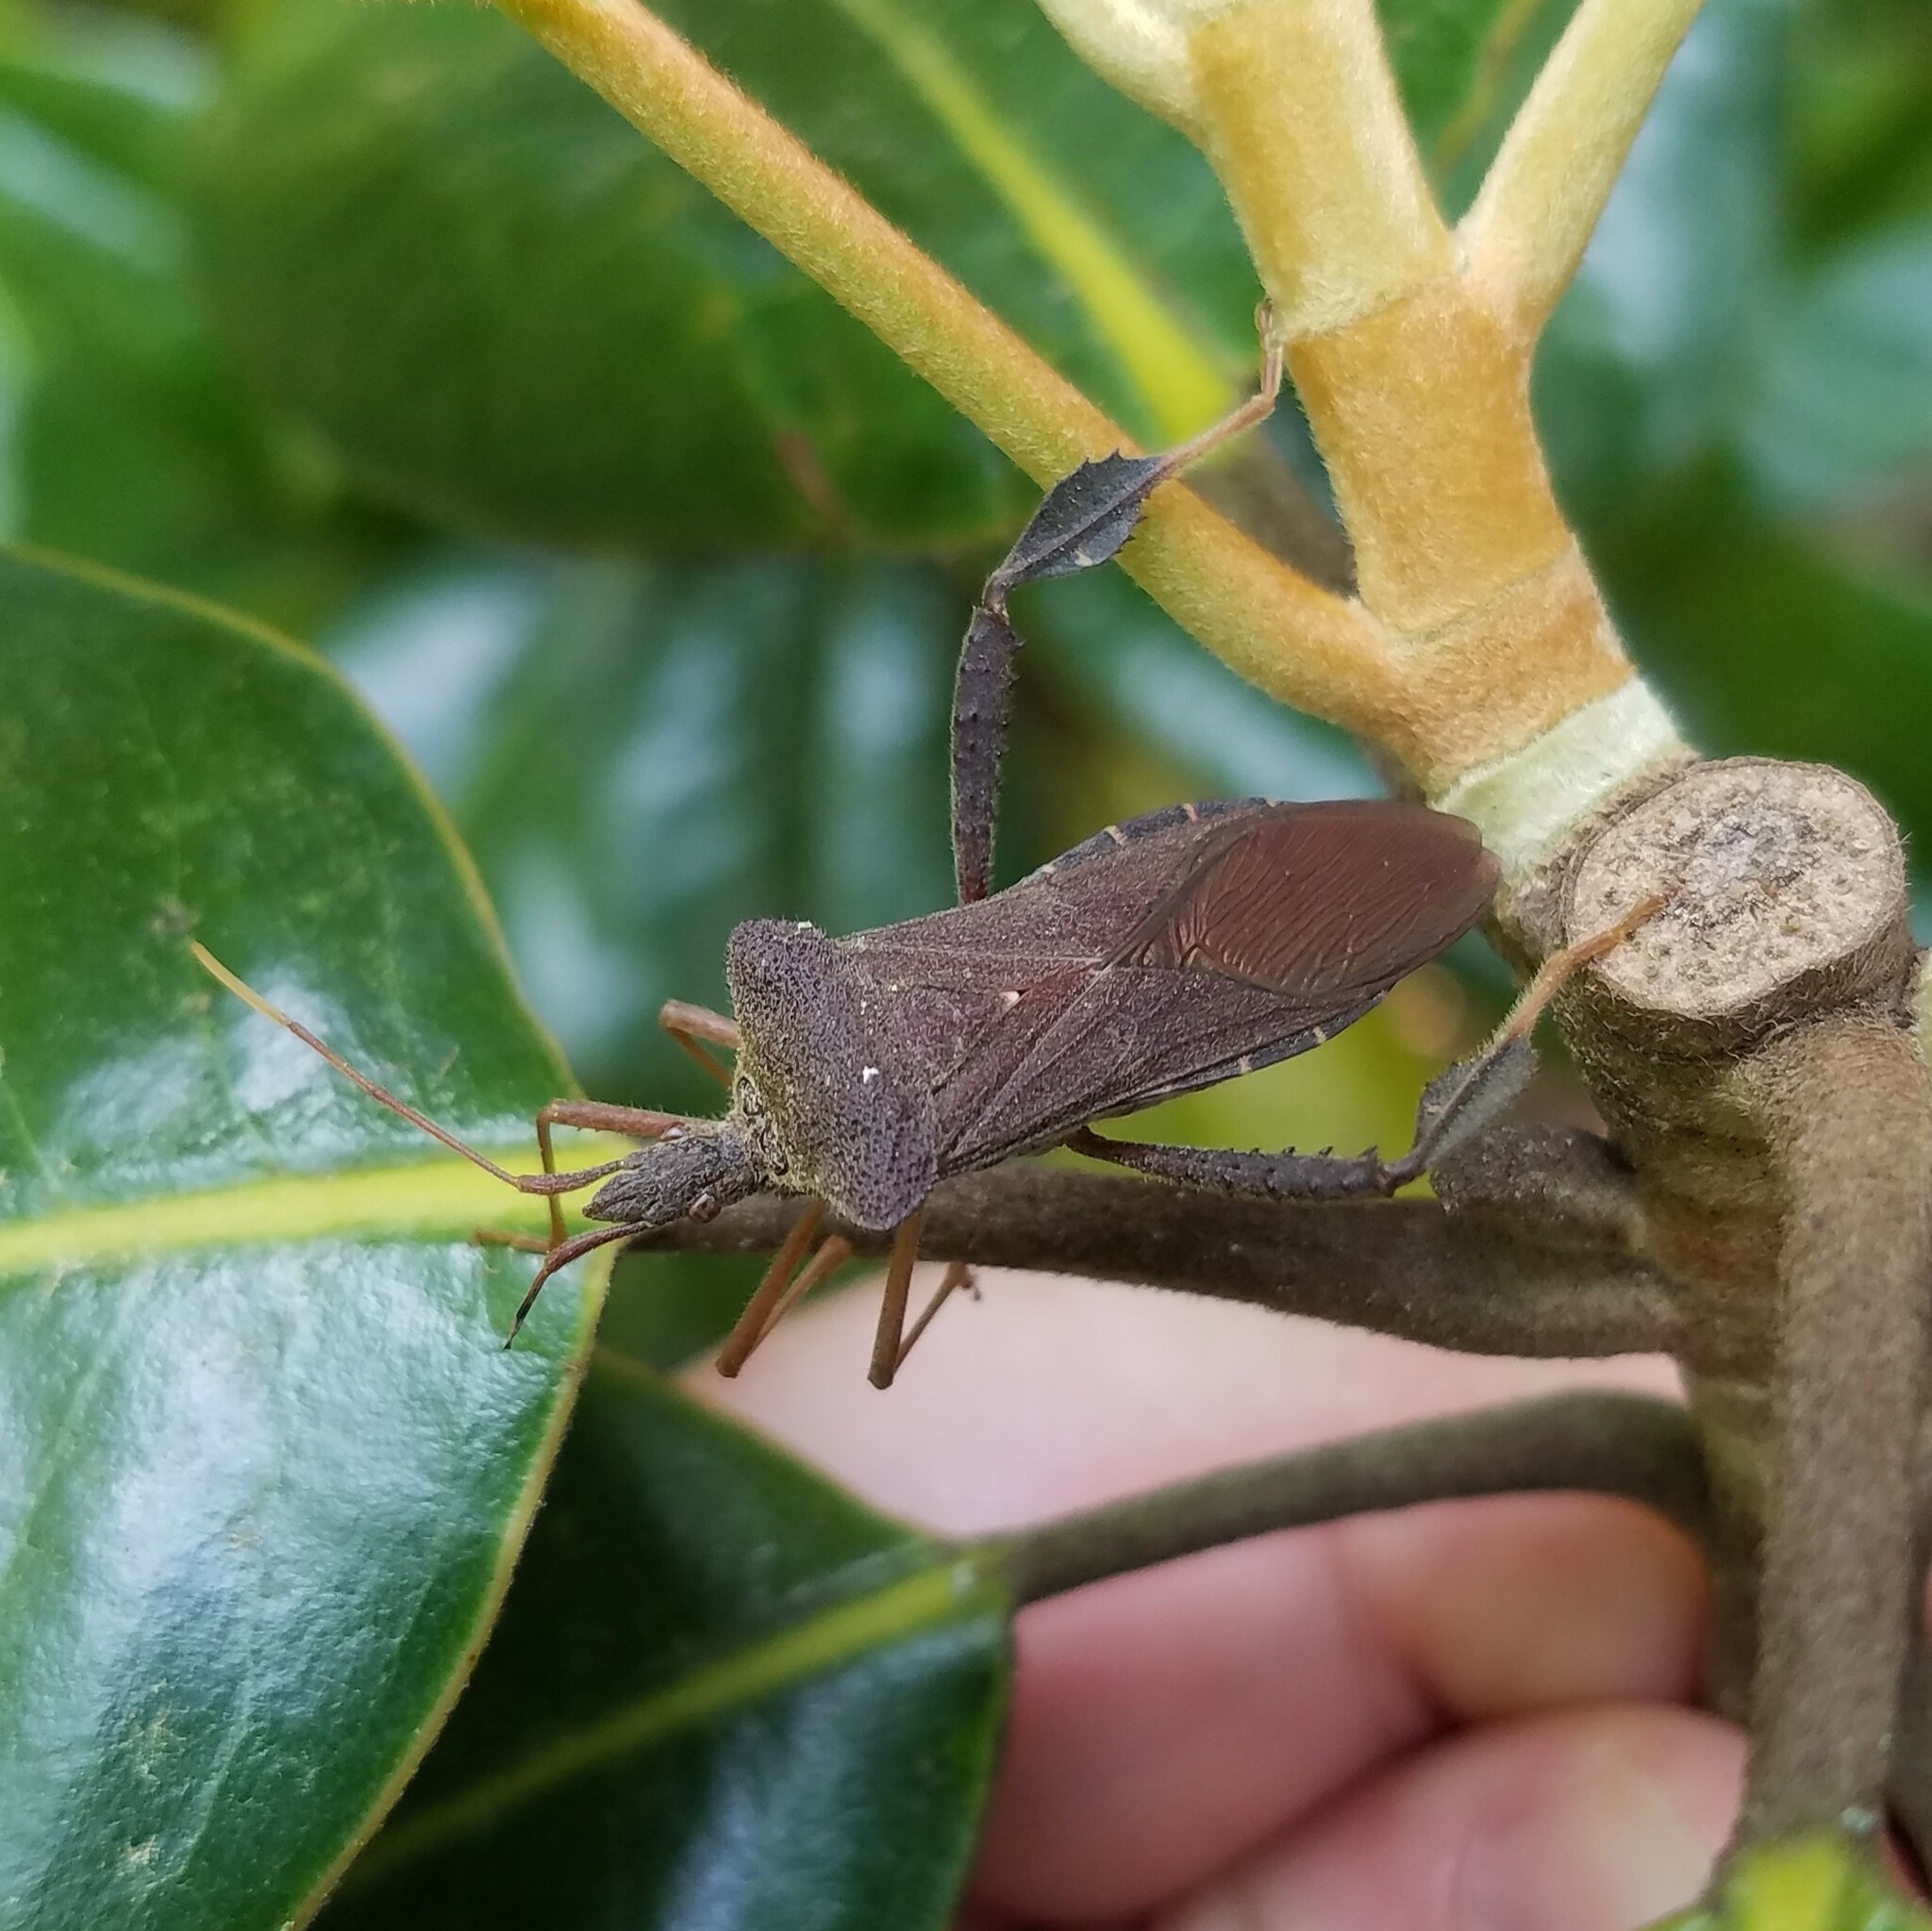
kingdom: Animalia
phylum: Arthropoda
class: Insecta
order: Hemiptera
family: Coreidae
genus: Leptoglossus
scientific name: Leptoglossus fulvicornis
